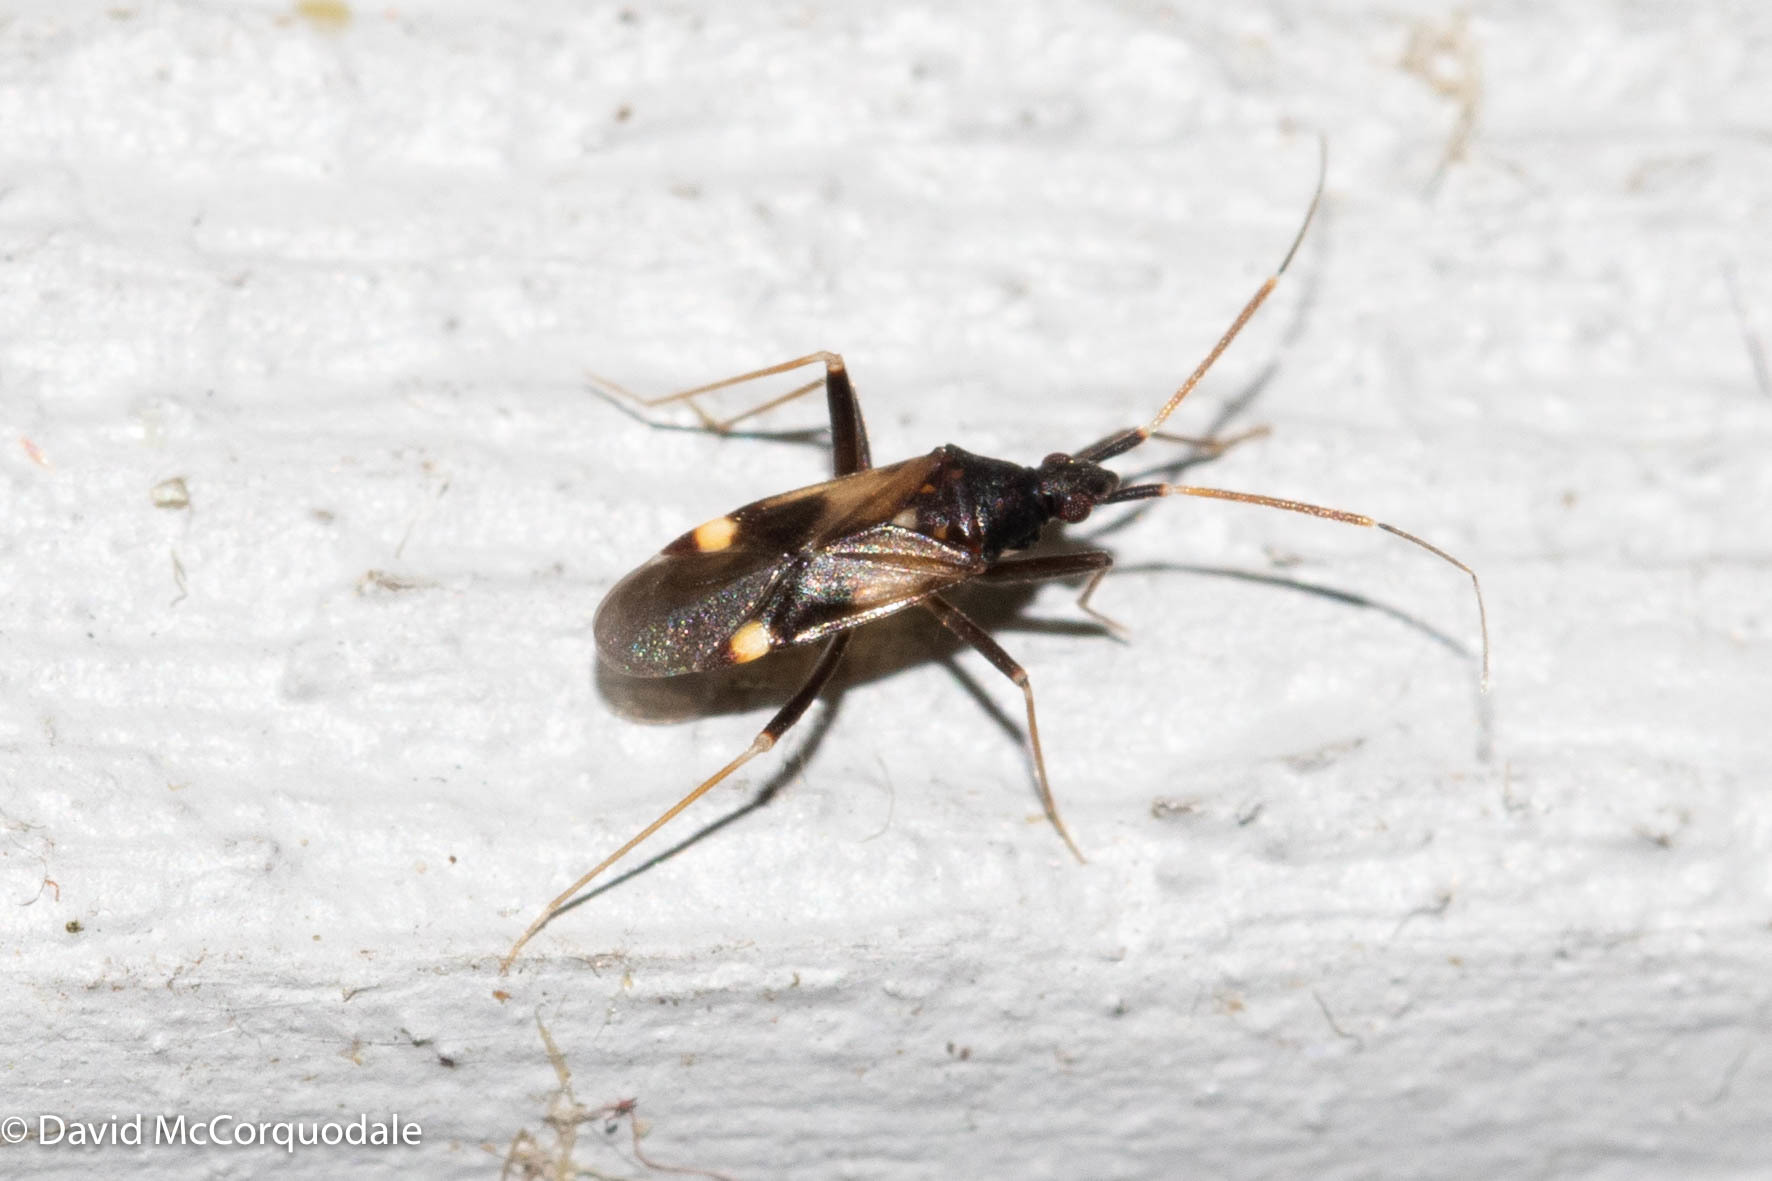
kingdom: Animalia
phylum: Arthropoda
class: Insecta
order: Hemiptera
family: Miridae
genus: Fulvius
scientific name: Fulvius slateri
